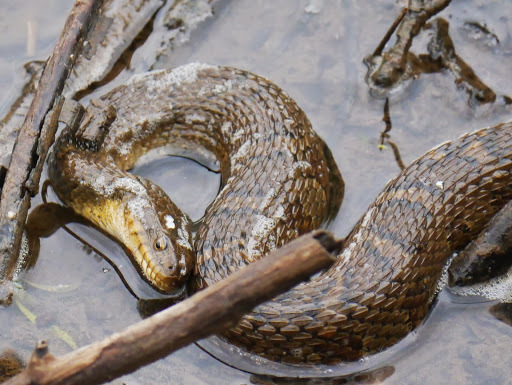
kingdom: Animalia
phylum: Chordata
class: Squamata
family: Colubridae
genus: Nerodia
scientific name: Nerodia sipedon
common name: Northern water snake
